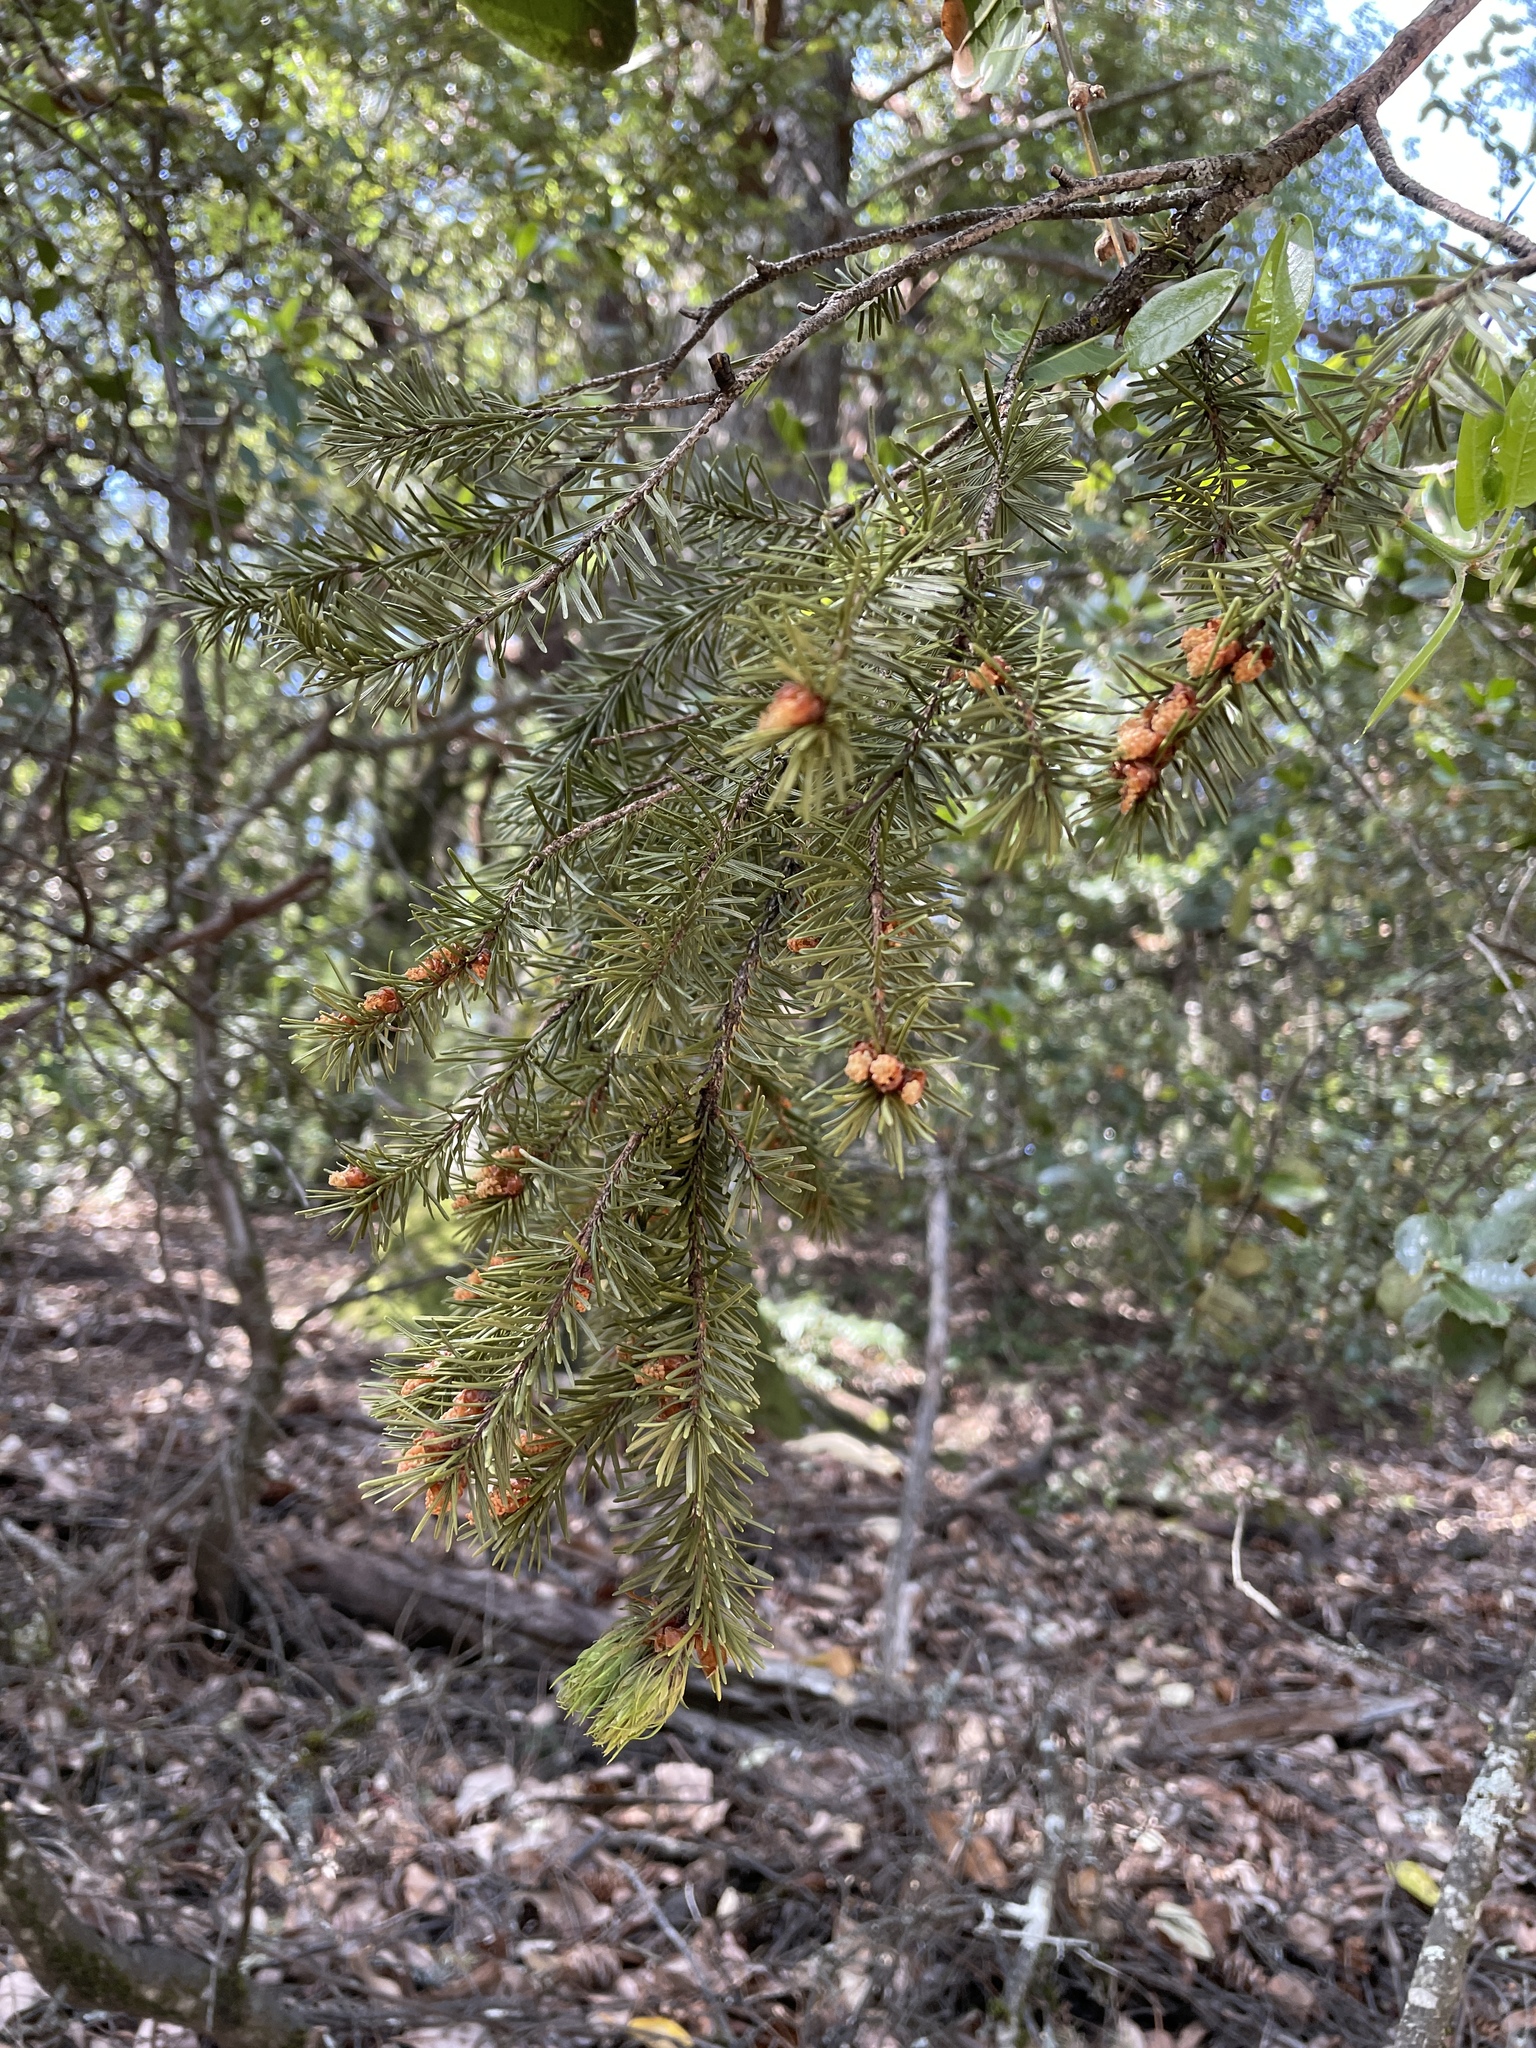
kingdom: Plantae
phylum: Tracheophyta
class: Pinopsida
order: Pinales
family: Pinaceae
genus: Pseudotsuga
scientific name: Pseudotsuga menziesii
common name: Douglas fir
